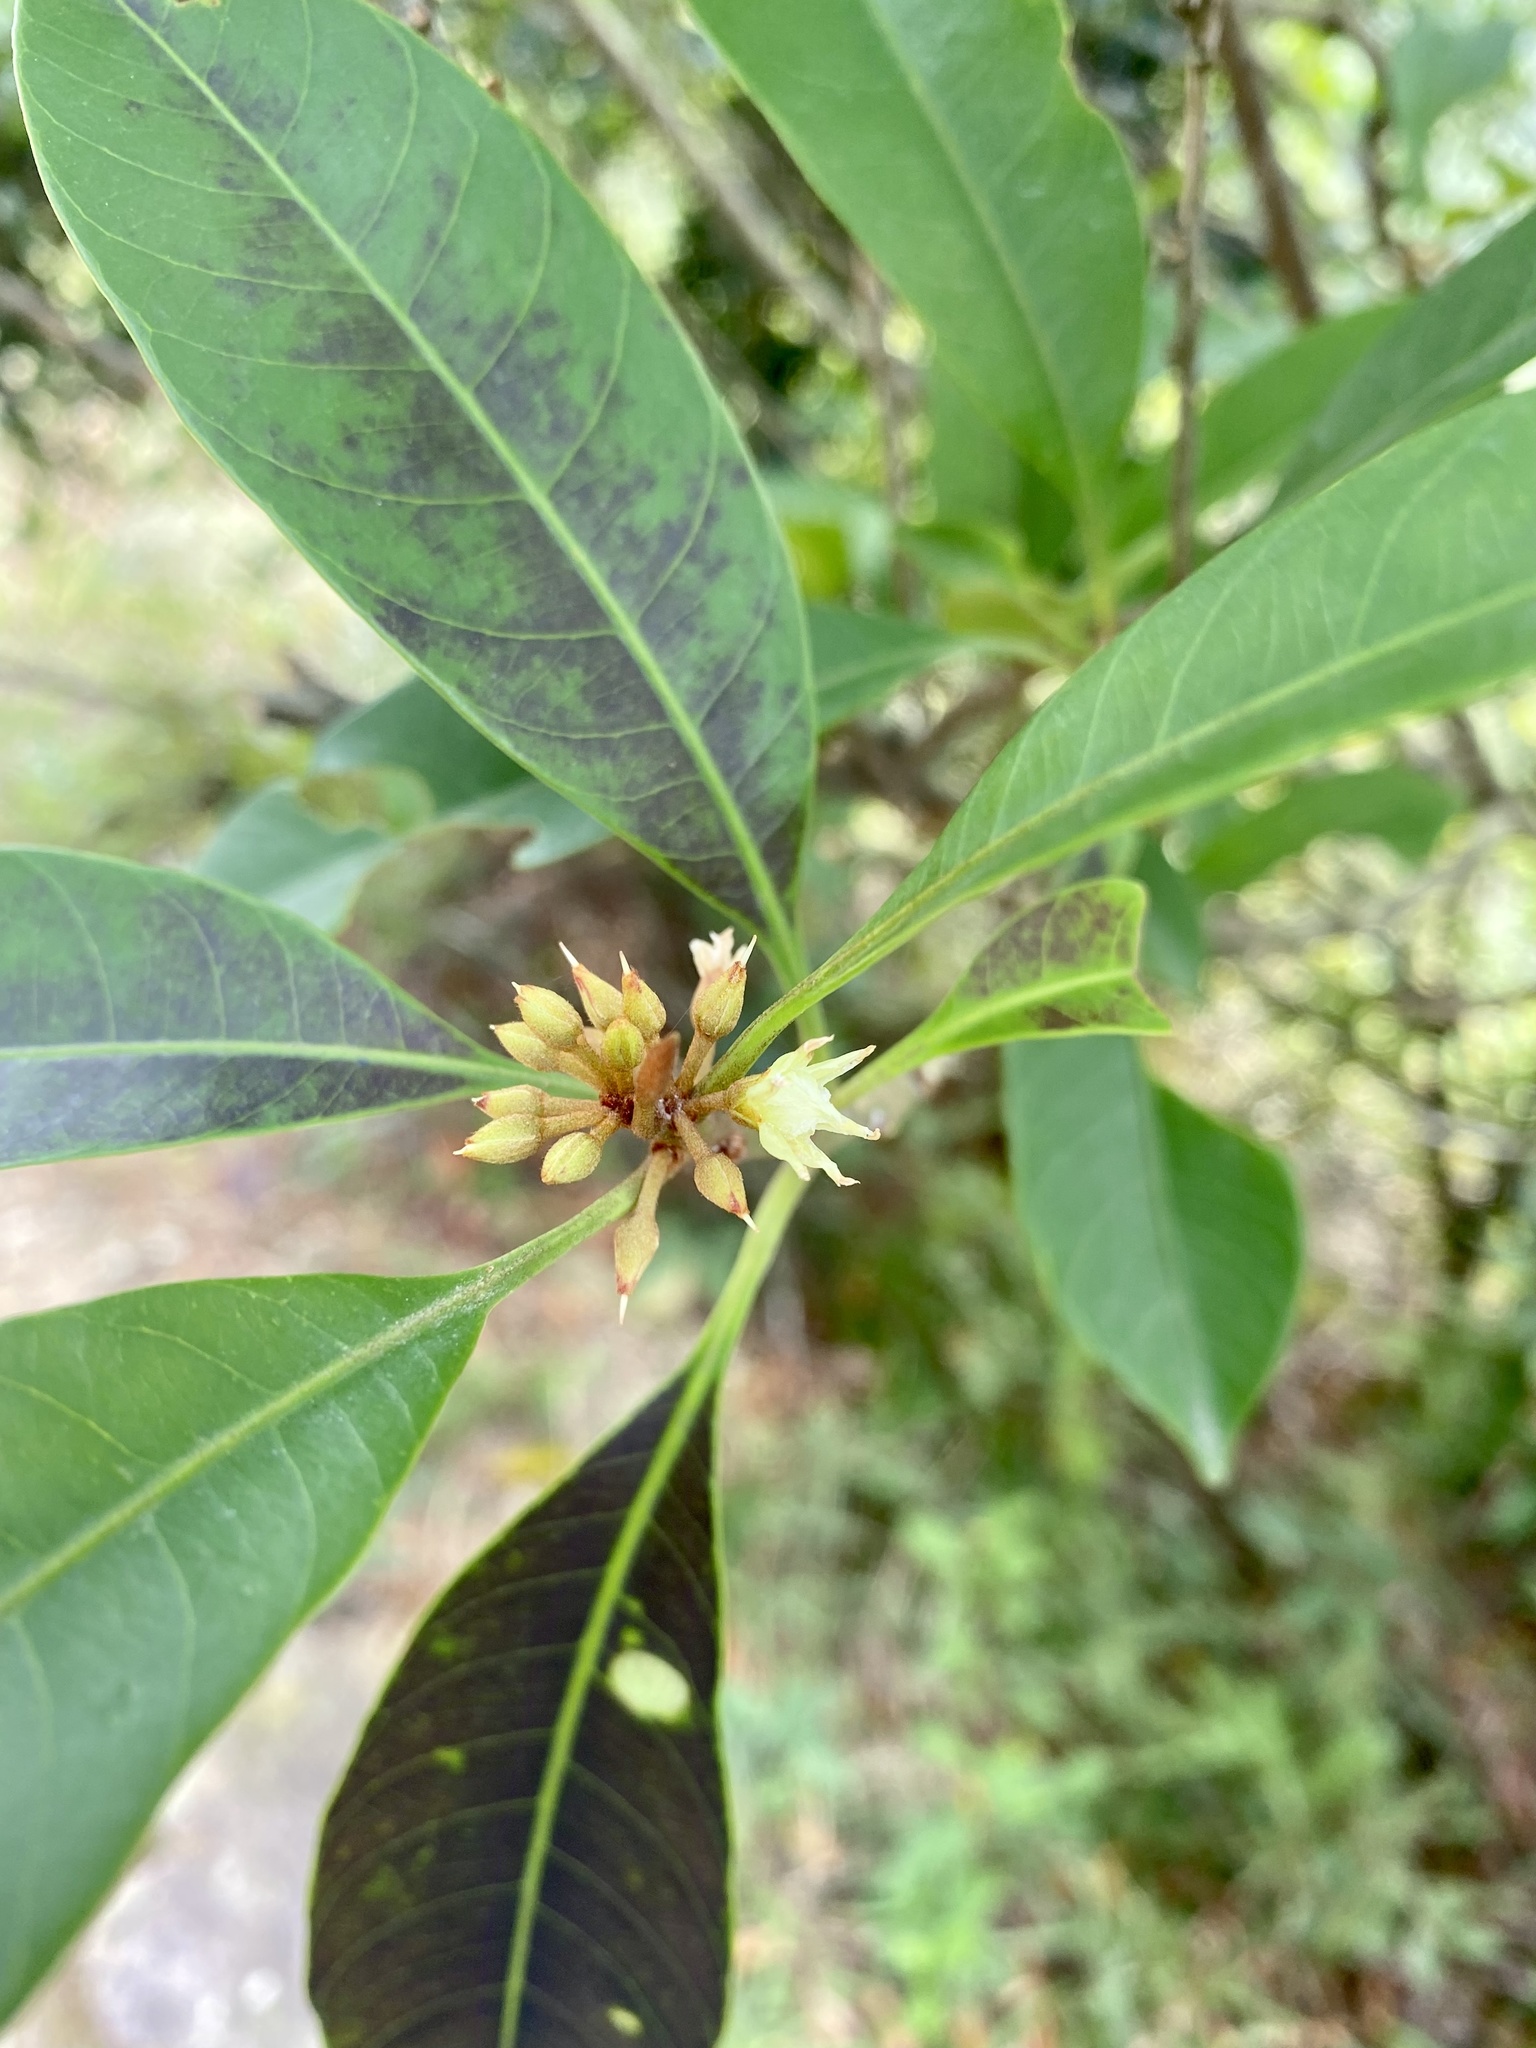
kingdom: Plantae
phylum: Tracheophyta
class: Magnoliopsida
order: Ericales
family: Sapotaceae
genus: Sideroxylon
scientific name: Sideroxylon wightianum
